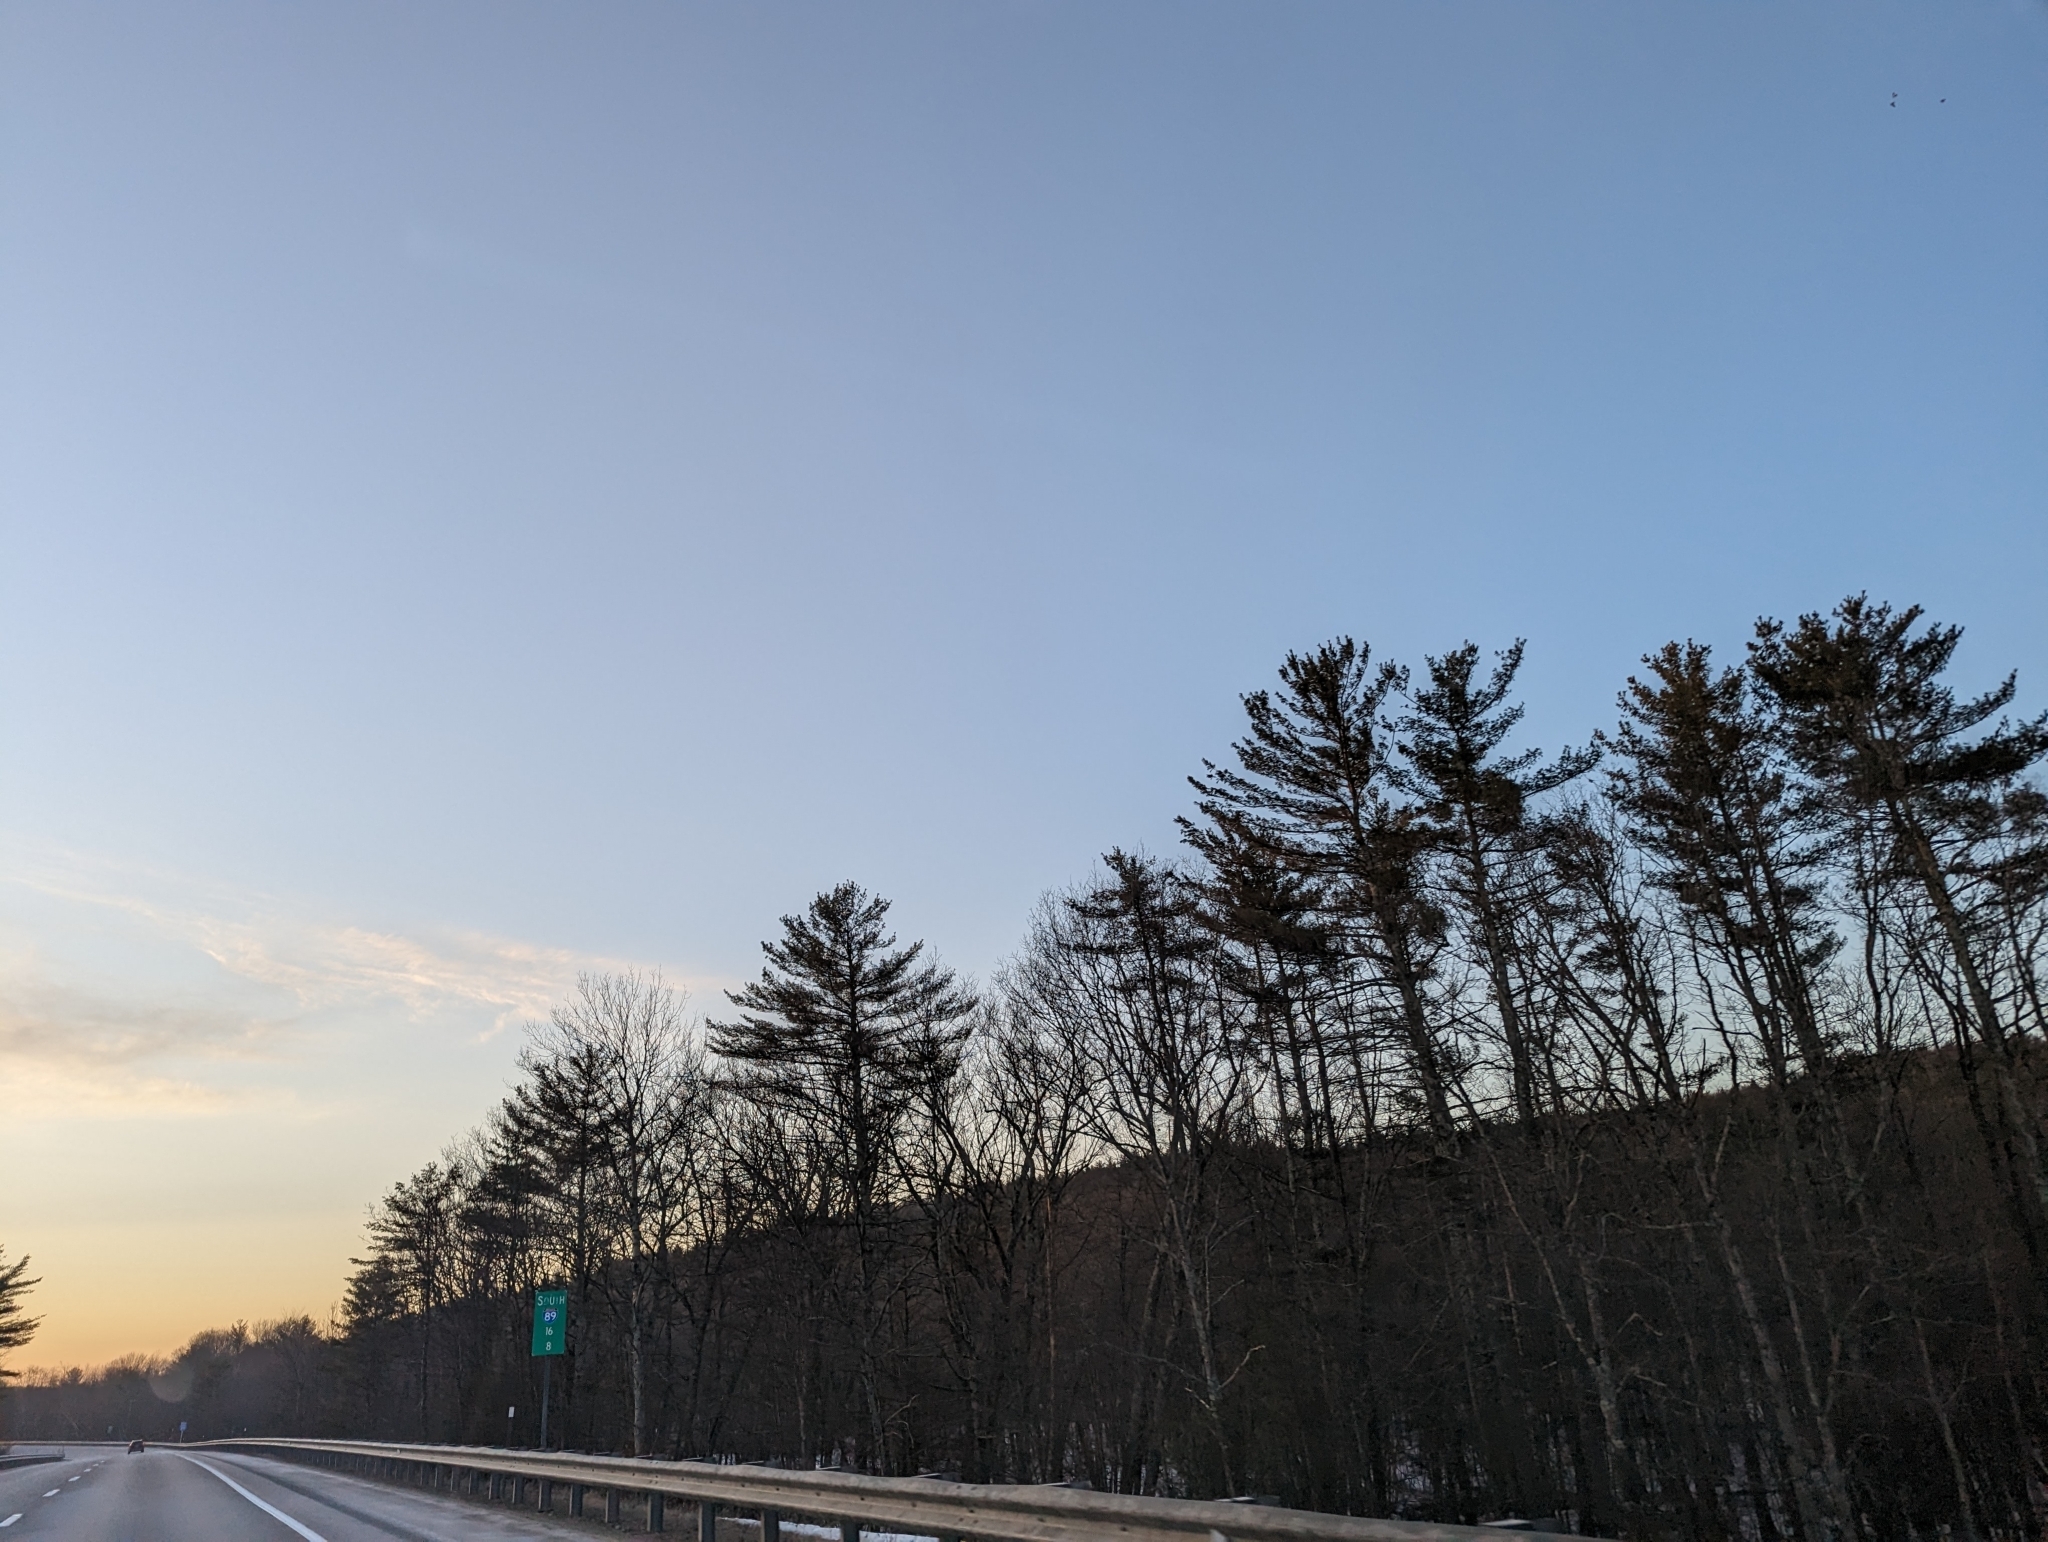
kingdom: Plantae
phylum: Tracheophyta
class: Pinopsida
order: Pinales
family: Pinaceae
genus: Pinus
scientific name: Pinus strobus
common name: Weymouth pine
